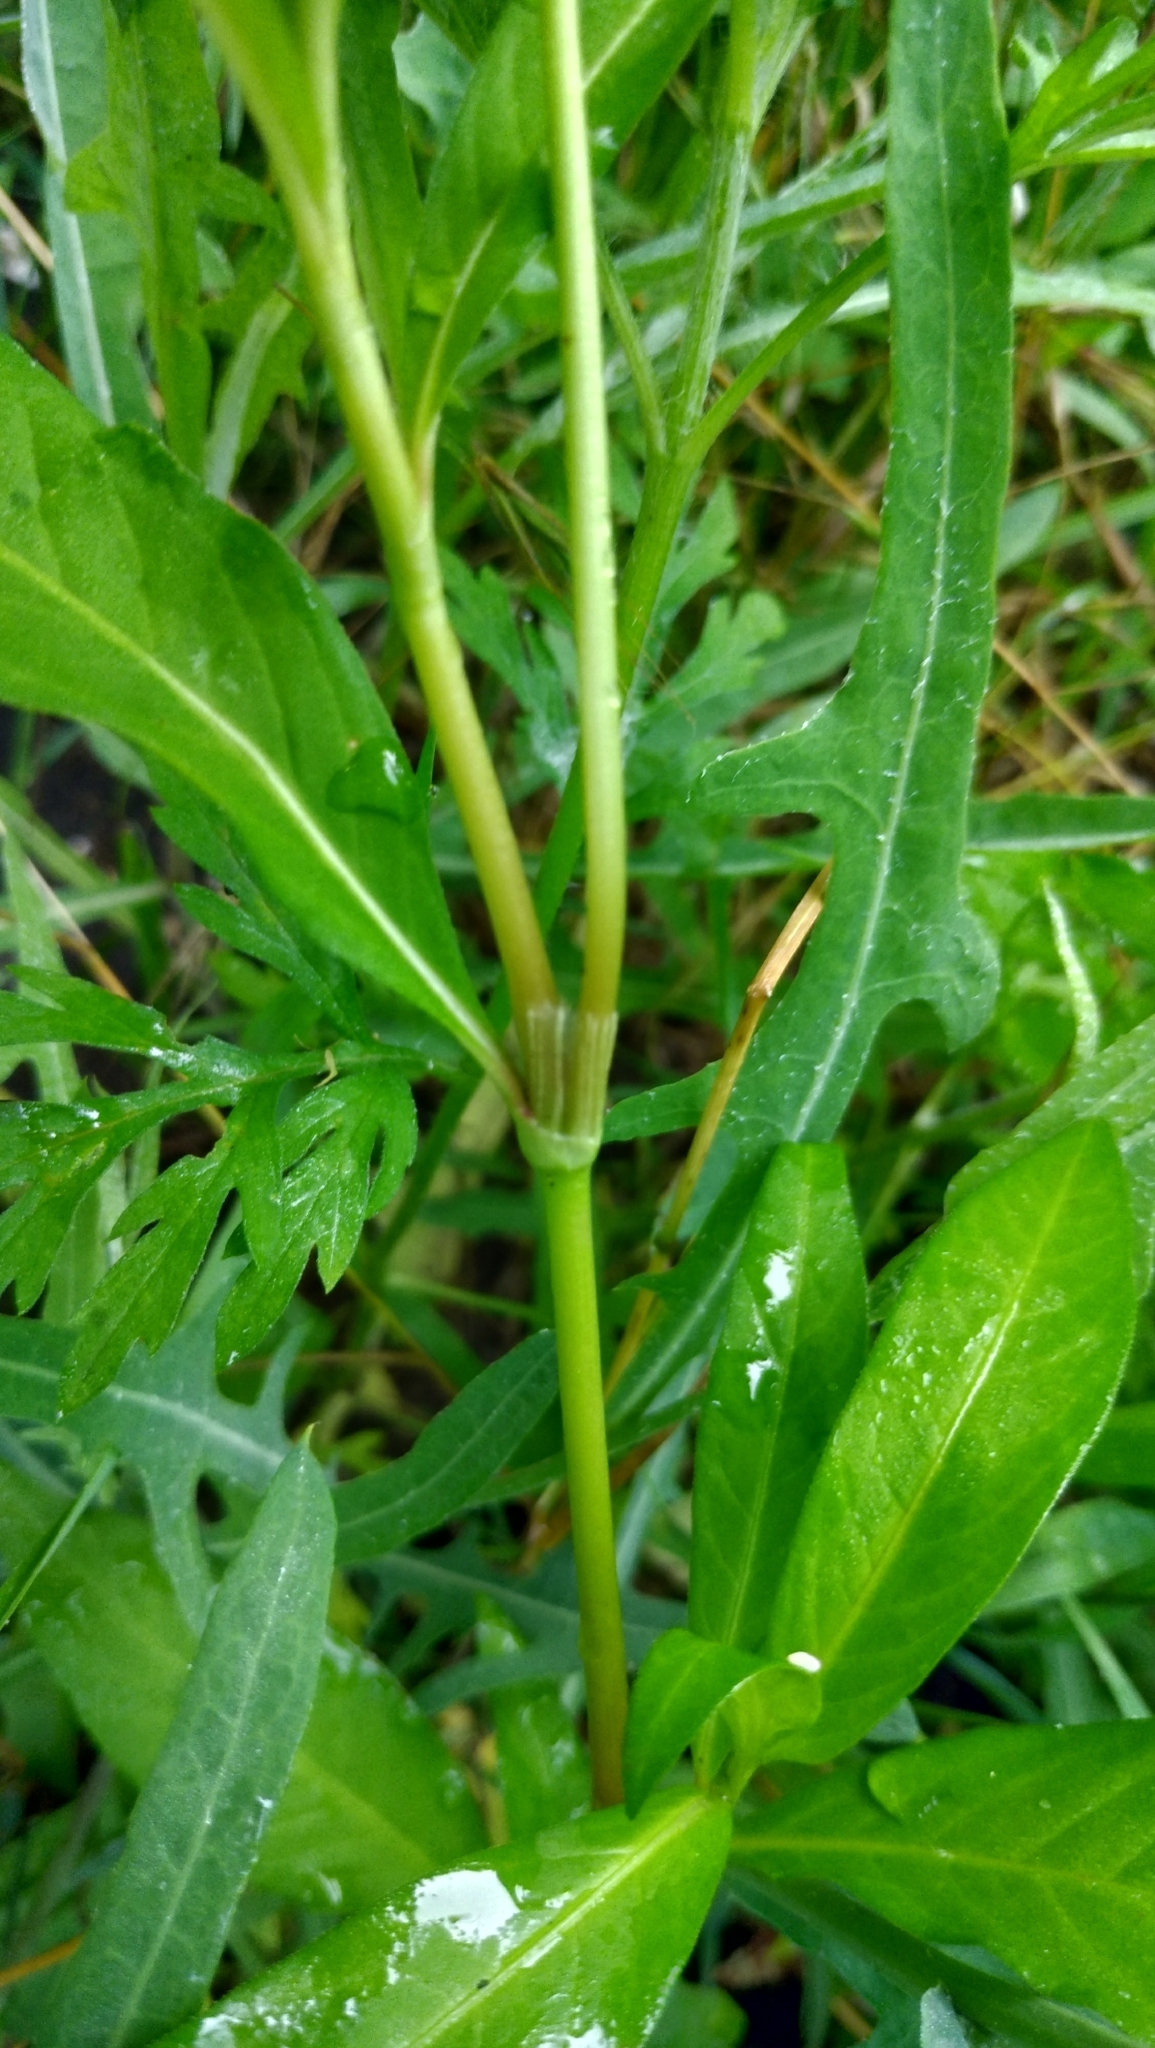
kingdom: Plantae
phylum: Tracheophyta
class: Magnoliopsida
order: Caryophyllales
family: Polygonaceae
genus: Persicaria
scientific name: Persicaria maculosa
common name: Redshank
